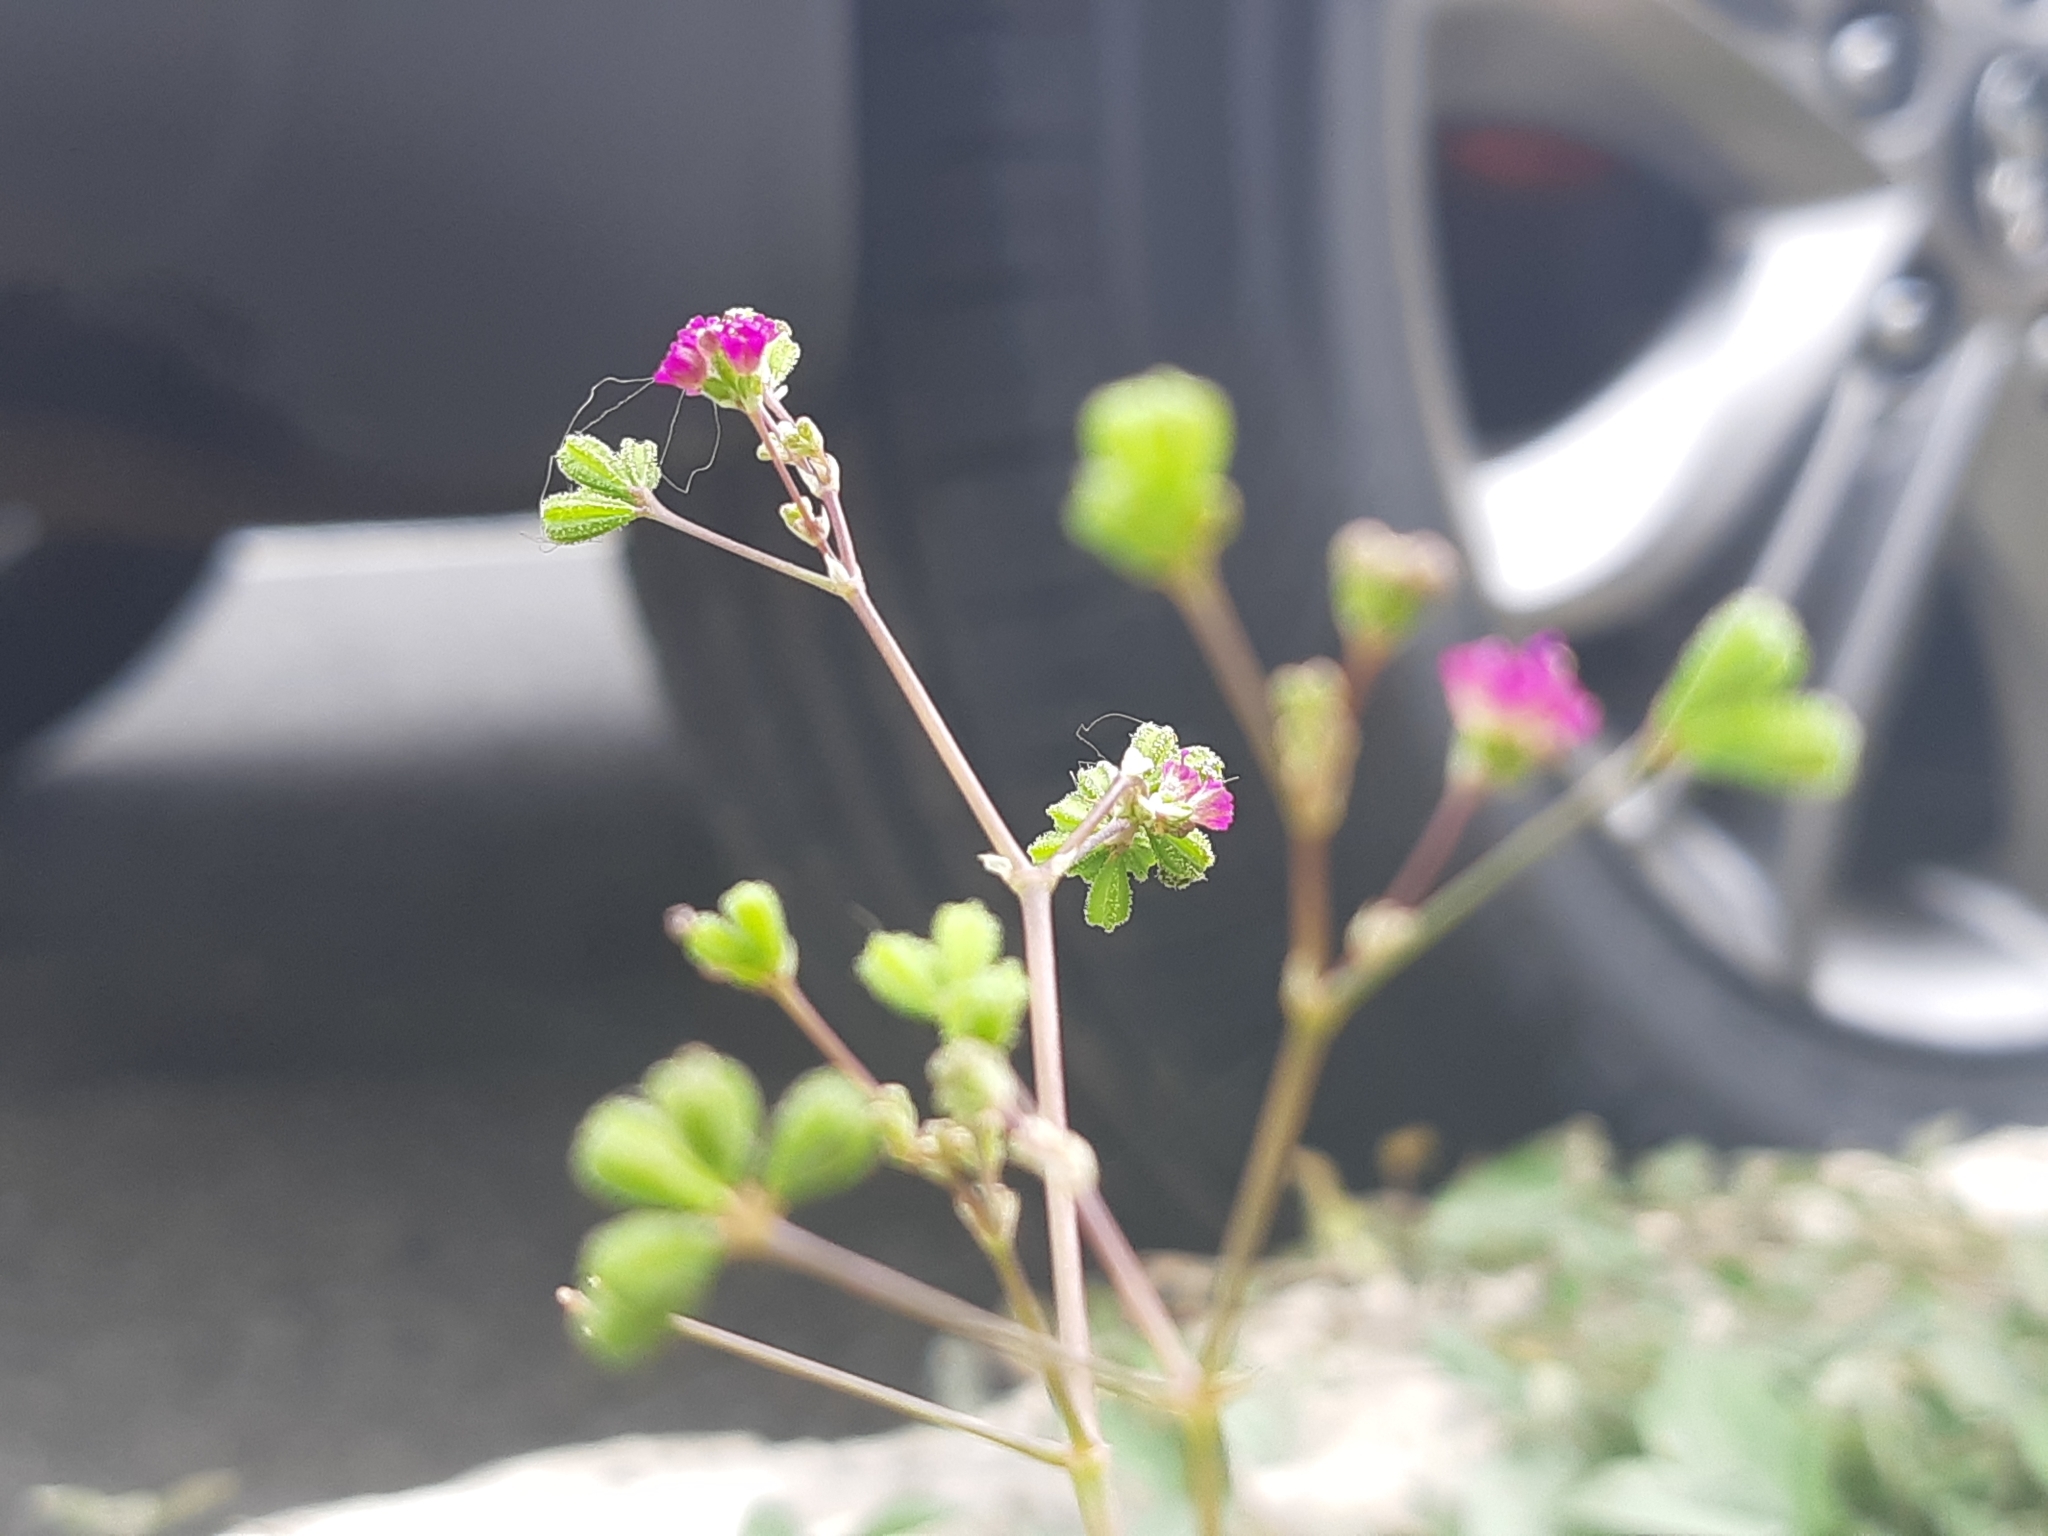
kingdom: Plantae
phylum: Tracheophyta
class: Magnoliopsida
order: Caryophyllales
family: Nyctaginaceae
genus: Boerhavia
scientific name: Boerhavia diffusa
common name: Red spiderling
